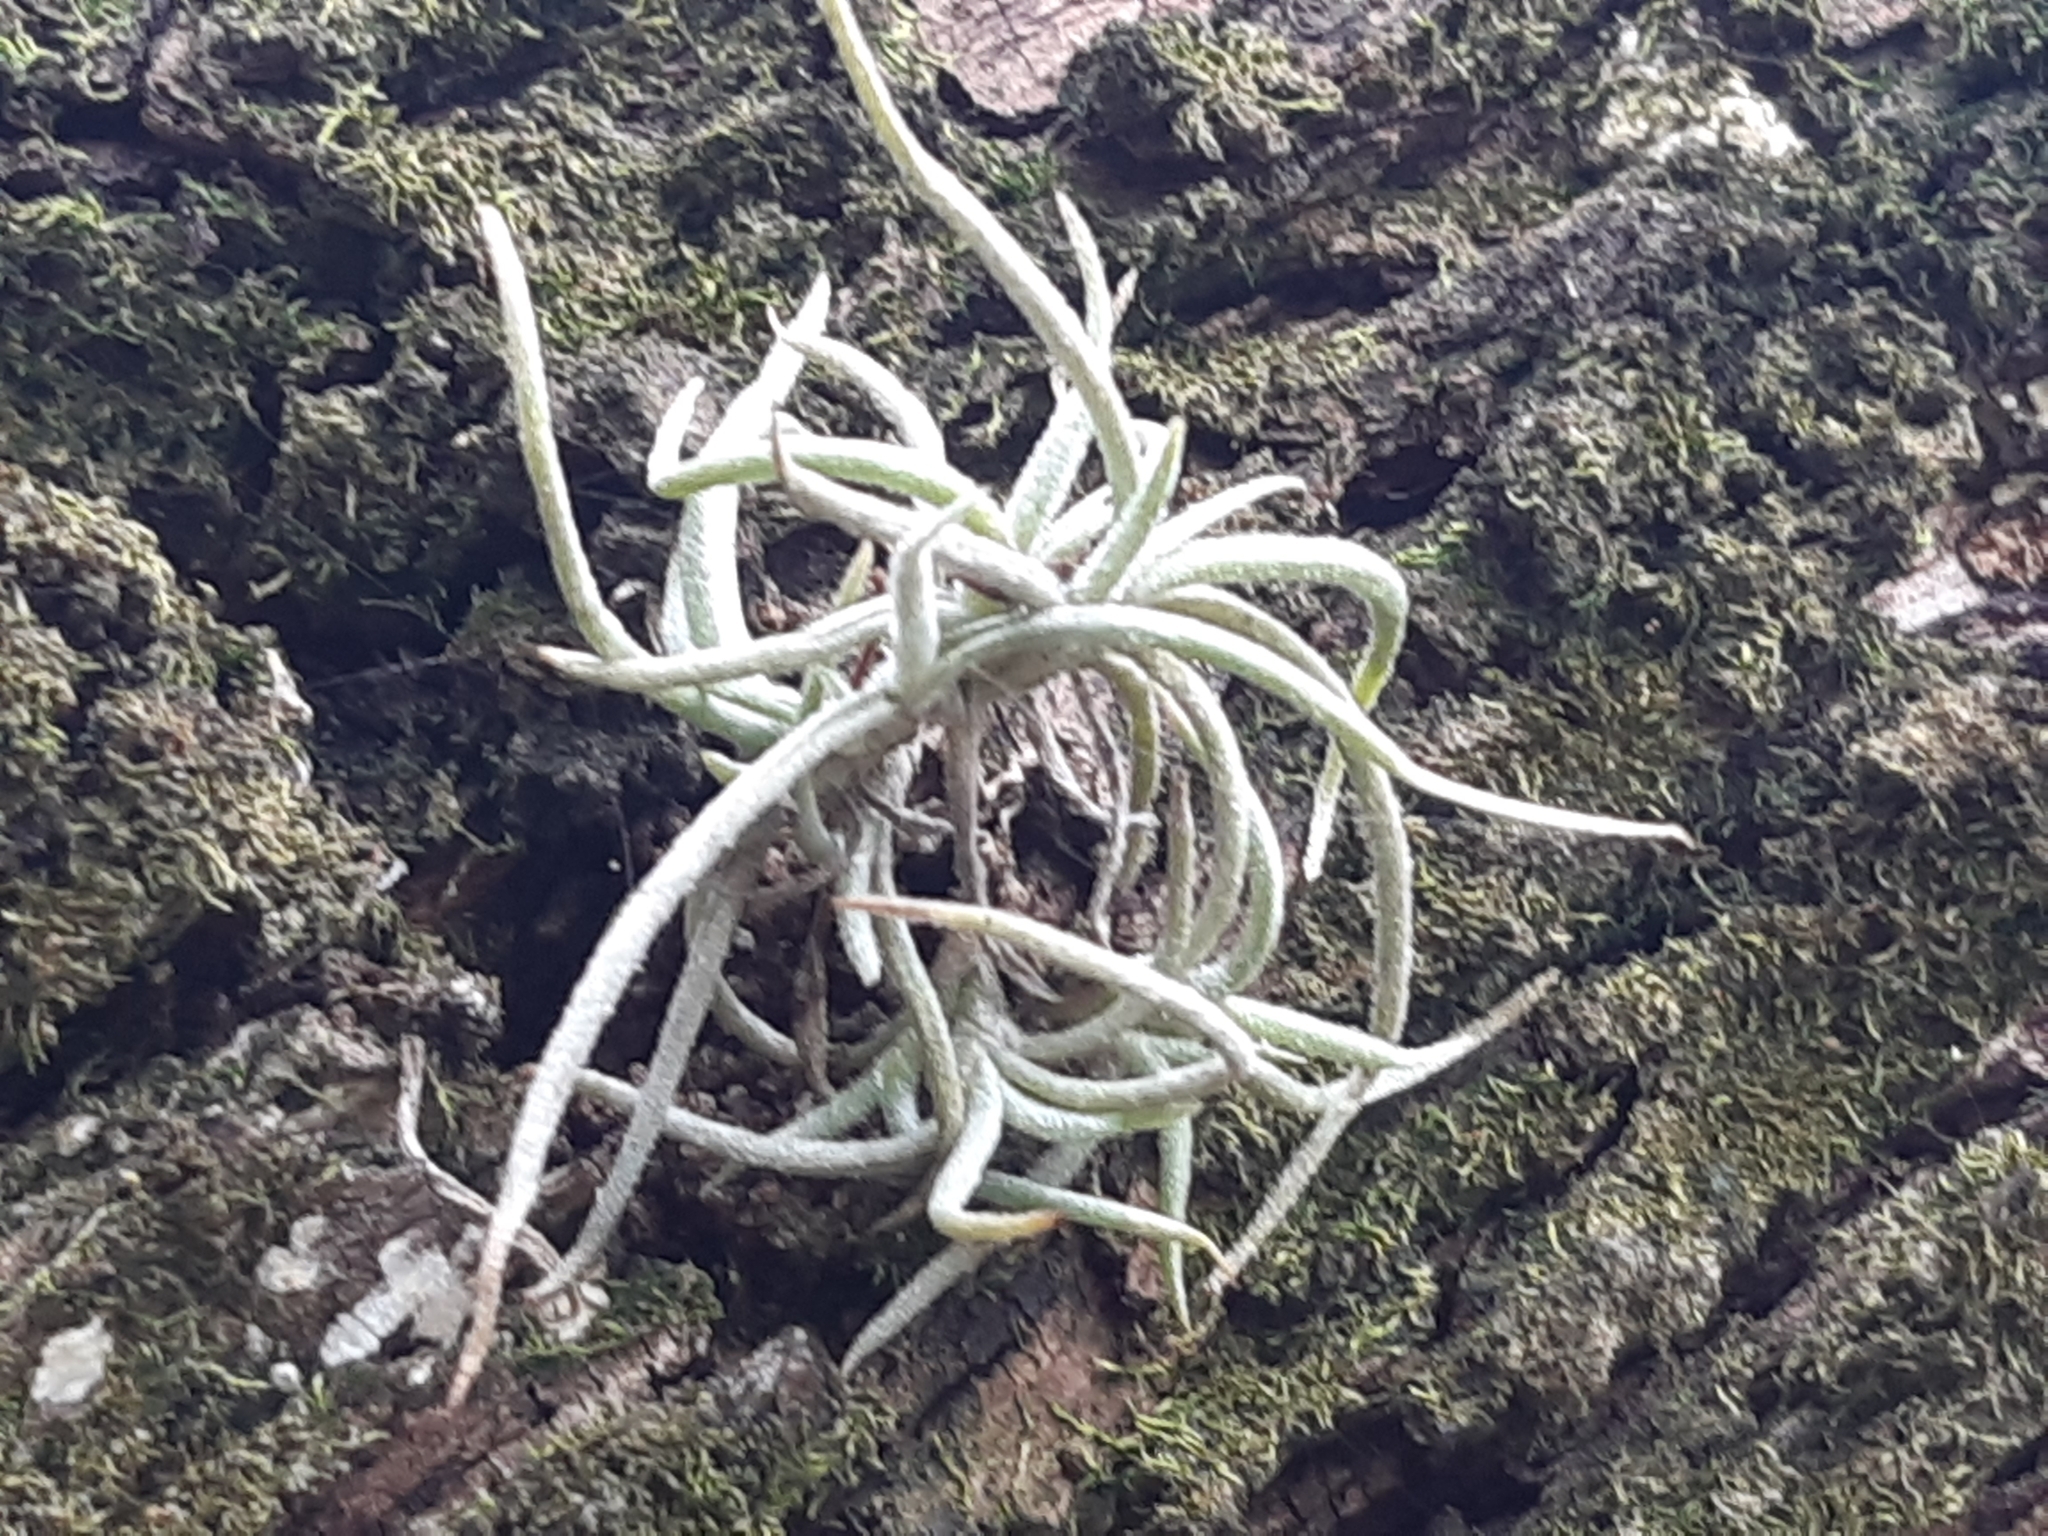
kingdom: Plantae
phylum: Tracheophyta
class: Liliopsida
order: Poales
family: Bromeliaceae
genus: Tillandsia
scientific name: Tillandsia recurvata
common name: Small ballmoss
